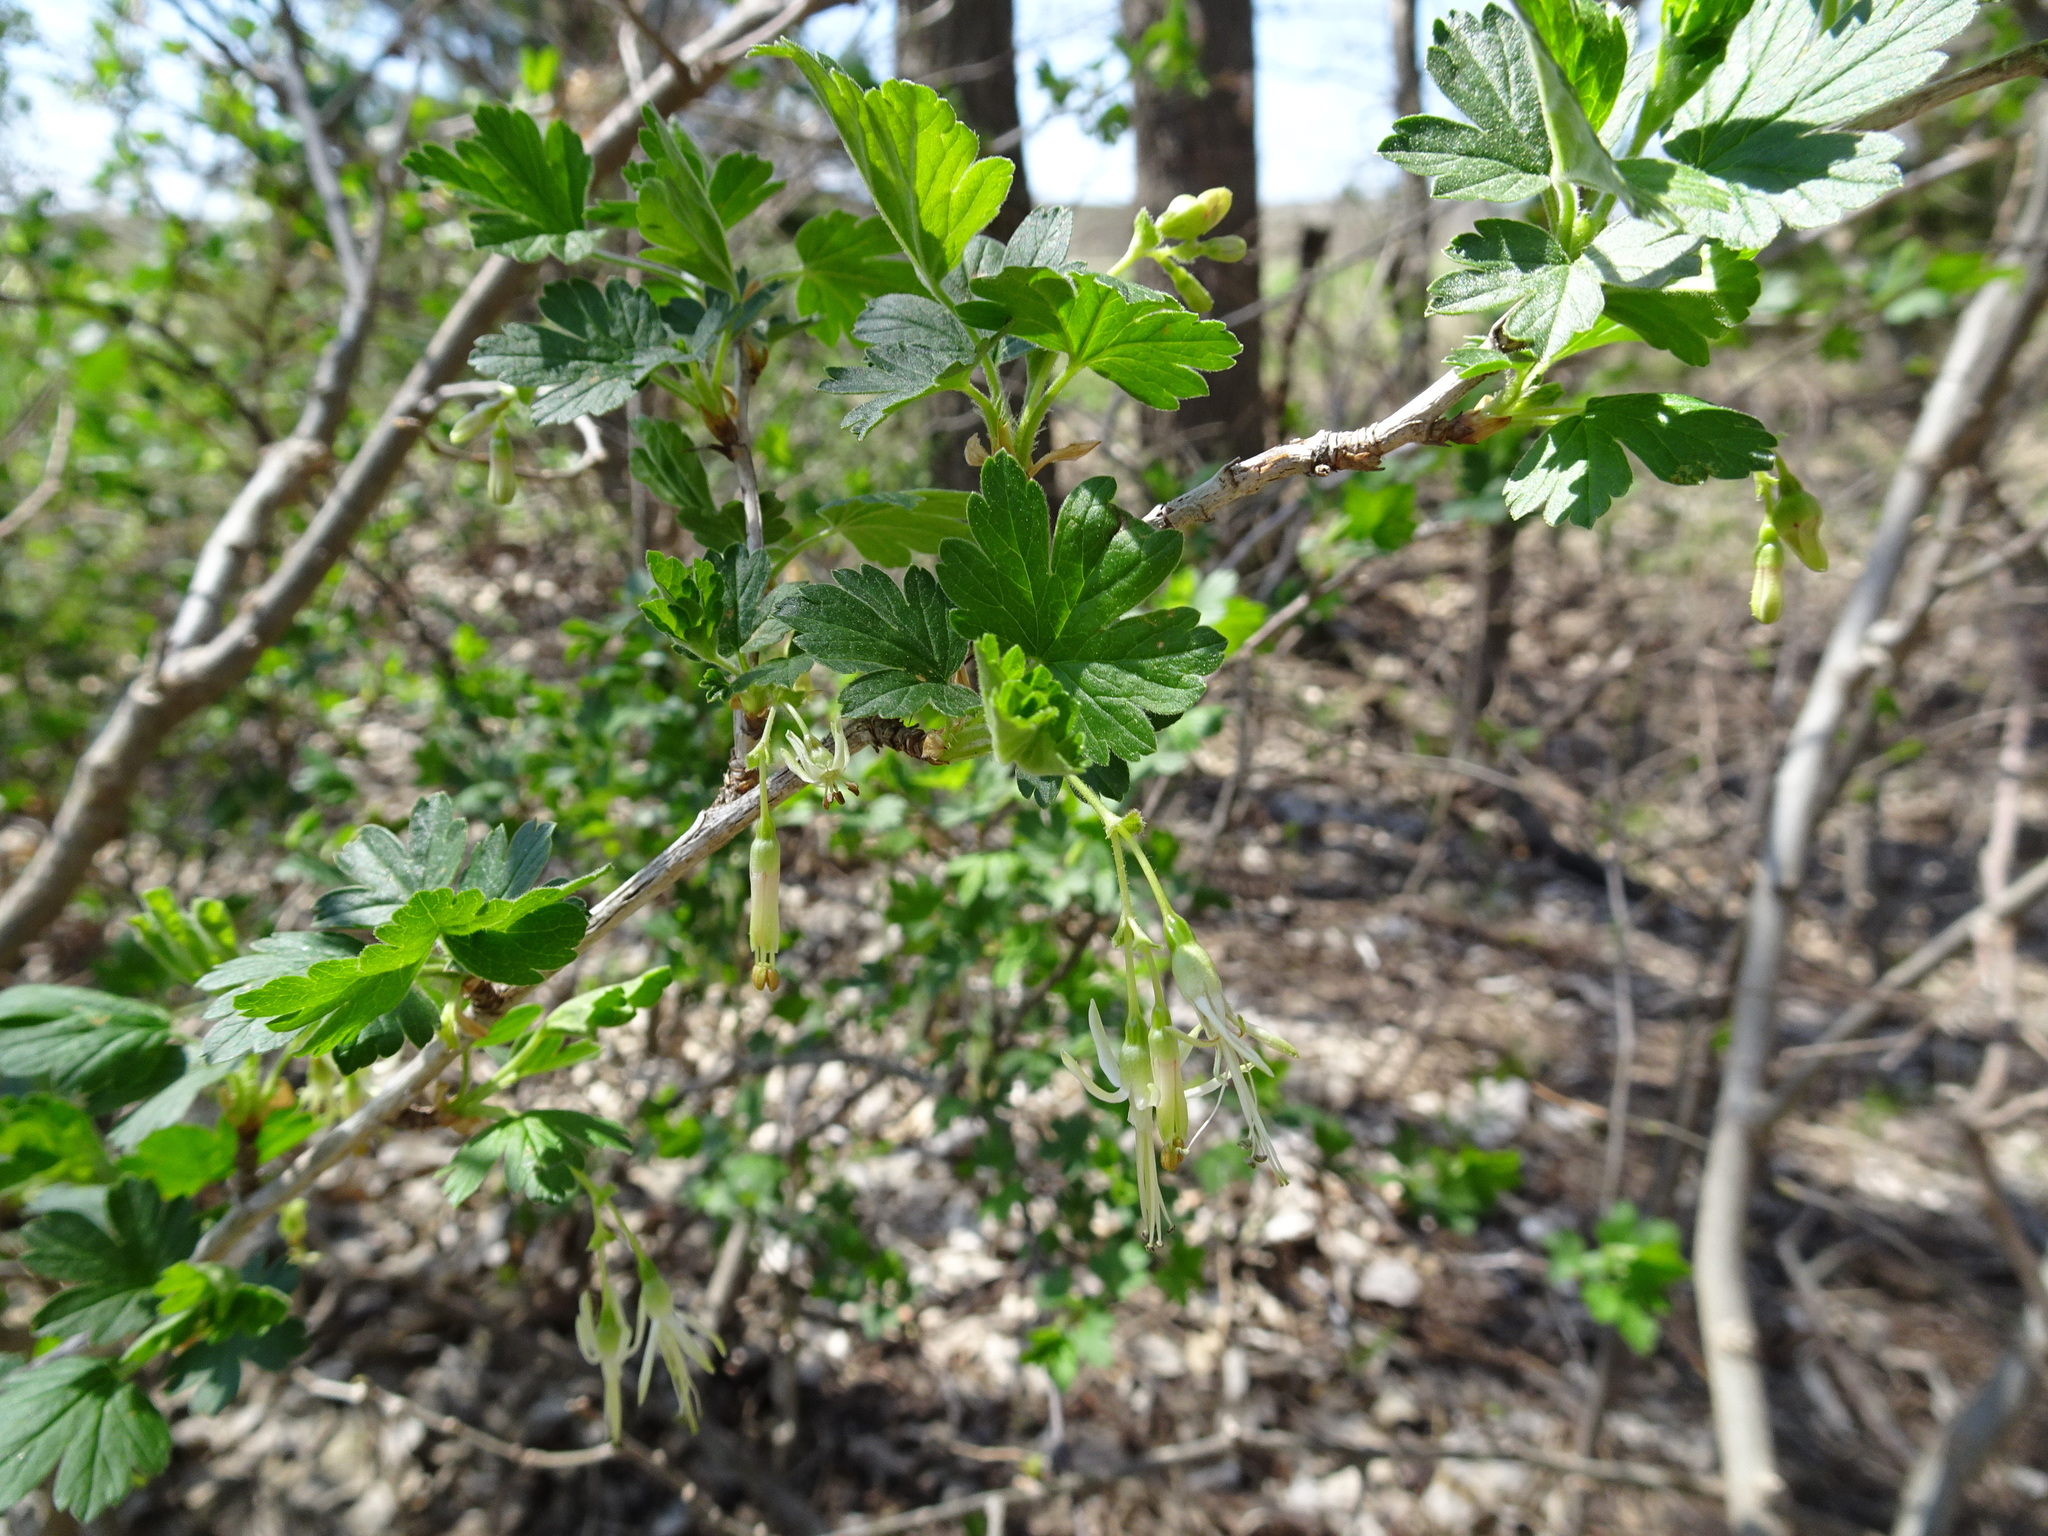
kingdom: Plantae
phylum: Tracheophyta
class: Magnoliopsida
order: Saxifragales
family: Grossulariaceae
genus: Ribes
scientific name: Ribes missouriense
